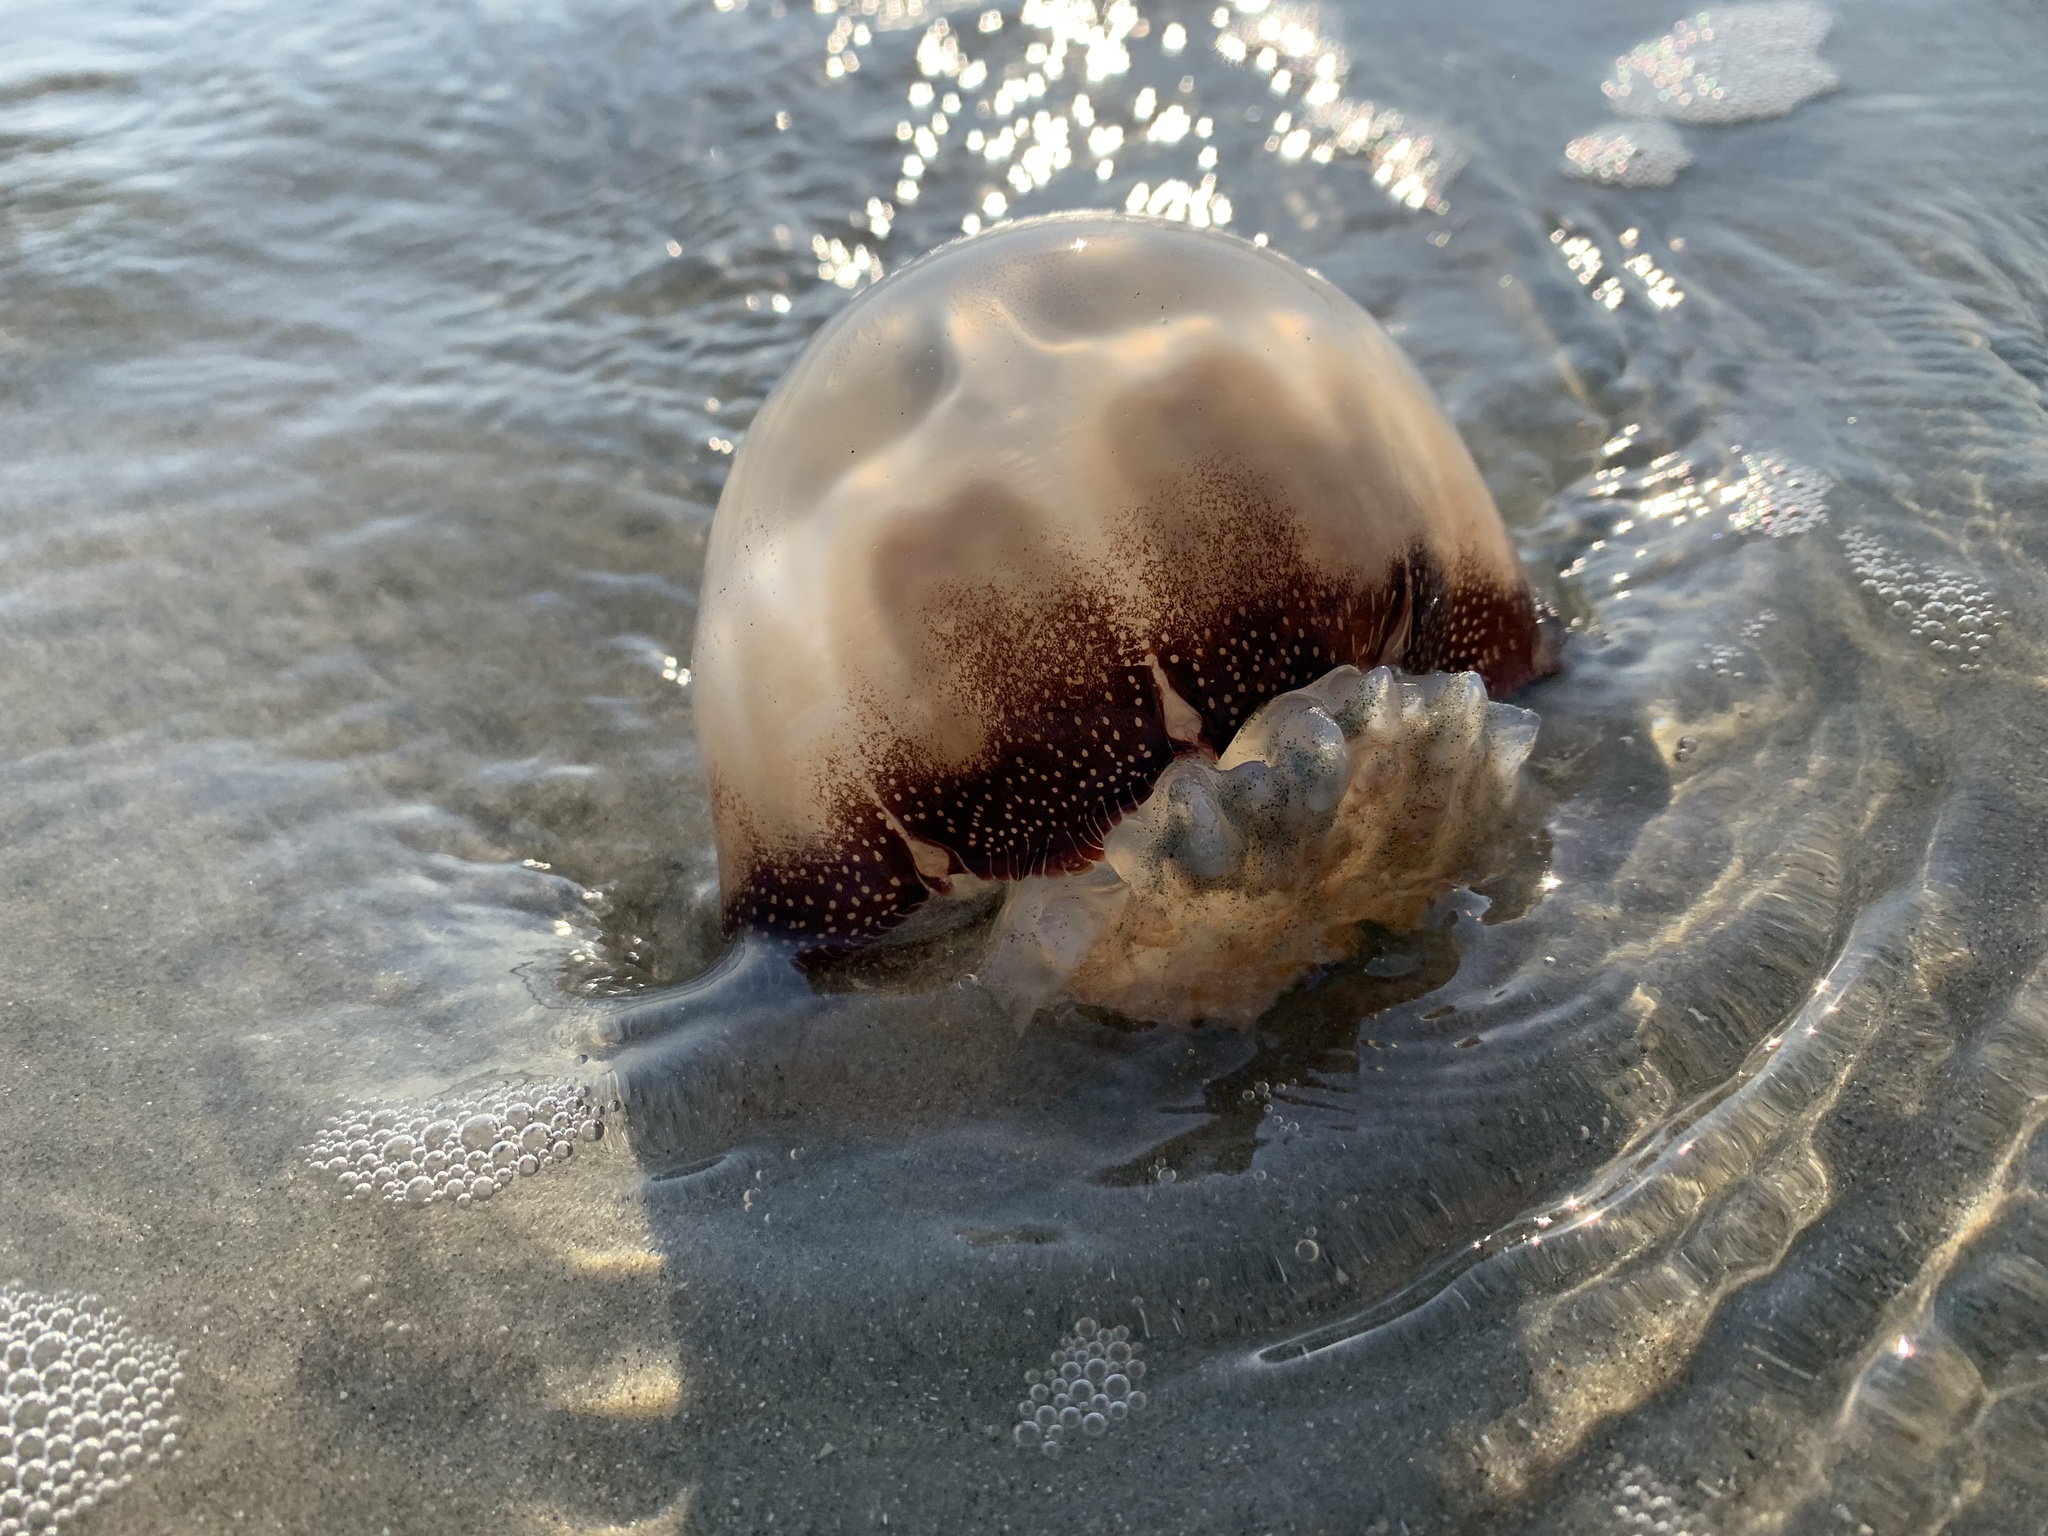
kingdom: Animalia
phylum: Cnidaria
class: Scyphozoa
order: Rhizostomeae
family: Stomolophidae
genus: Stomolophus
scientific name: Stomolophus meleagris
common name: Cabbagehead
